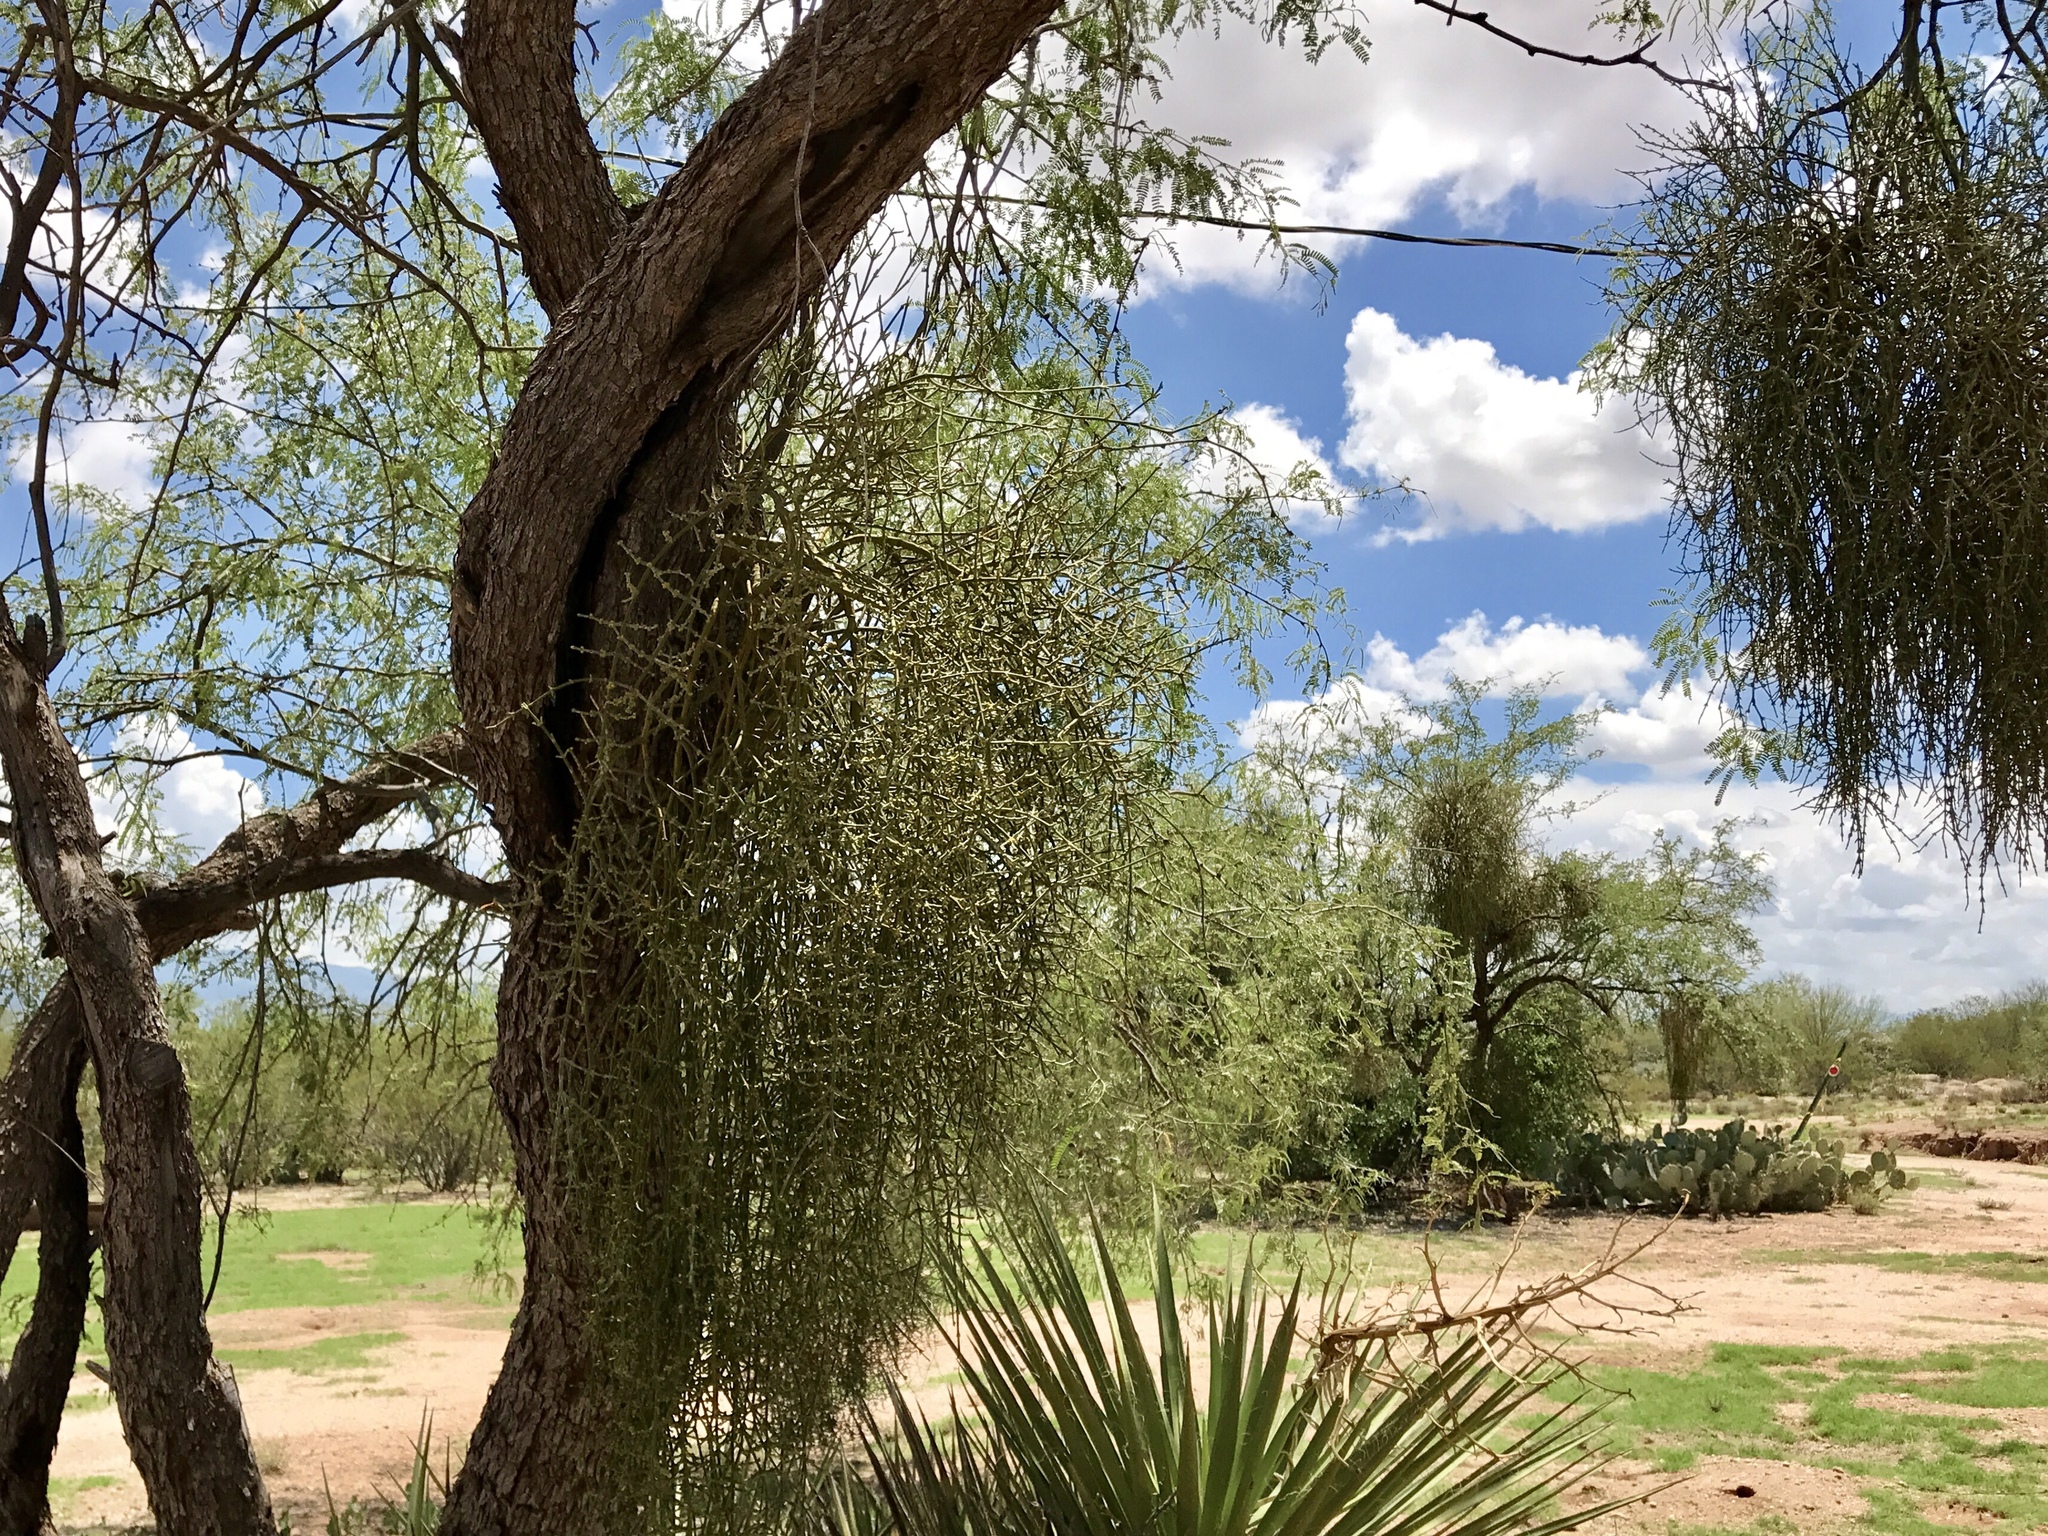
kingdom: Plantae
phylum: Tracheophyta
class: Magnoliopsida
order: Santalales
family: Viscaceae
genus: Phoradendron
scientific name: Phoradendron californicum
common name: Acacia mistletoe
